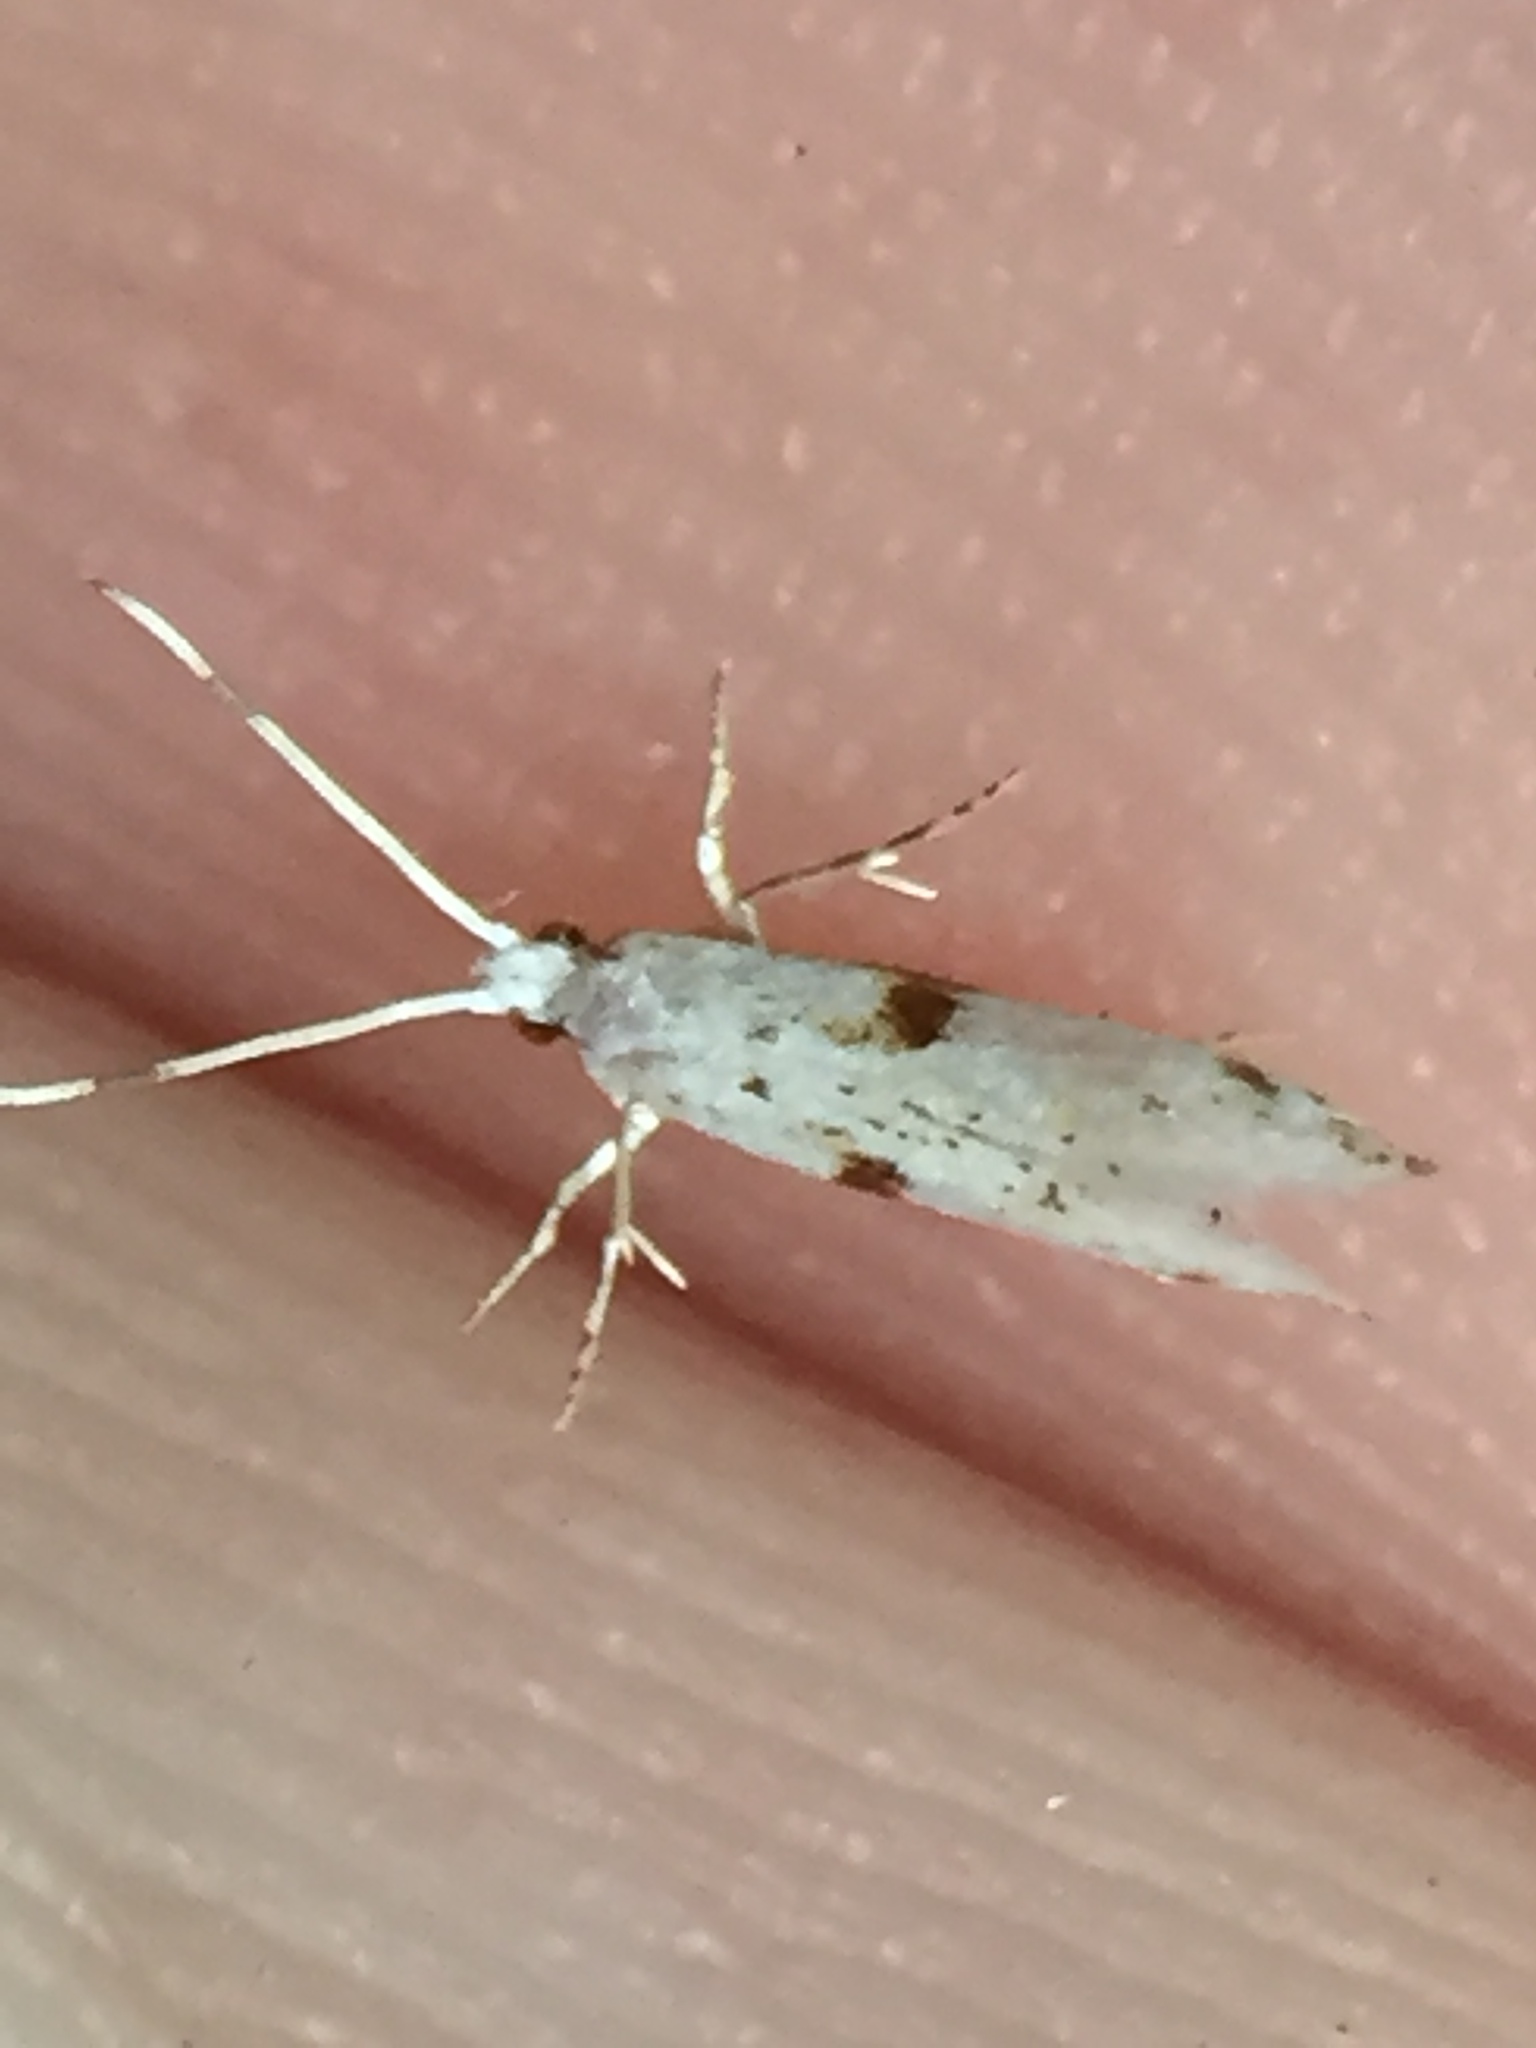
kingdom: Animalia
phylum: Arthropoda
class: Insecta
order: Lepidoptera
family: Tineidae
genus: Sagephora
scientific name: Sagephora felix
